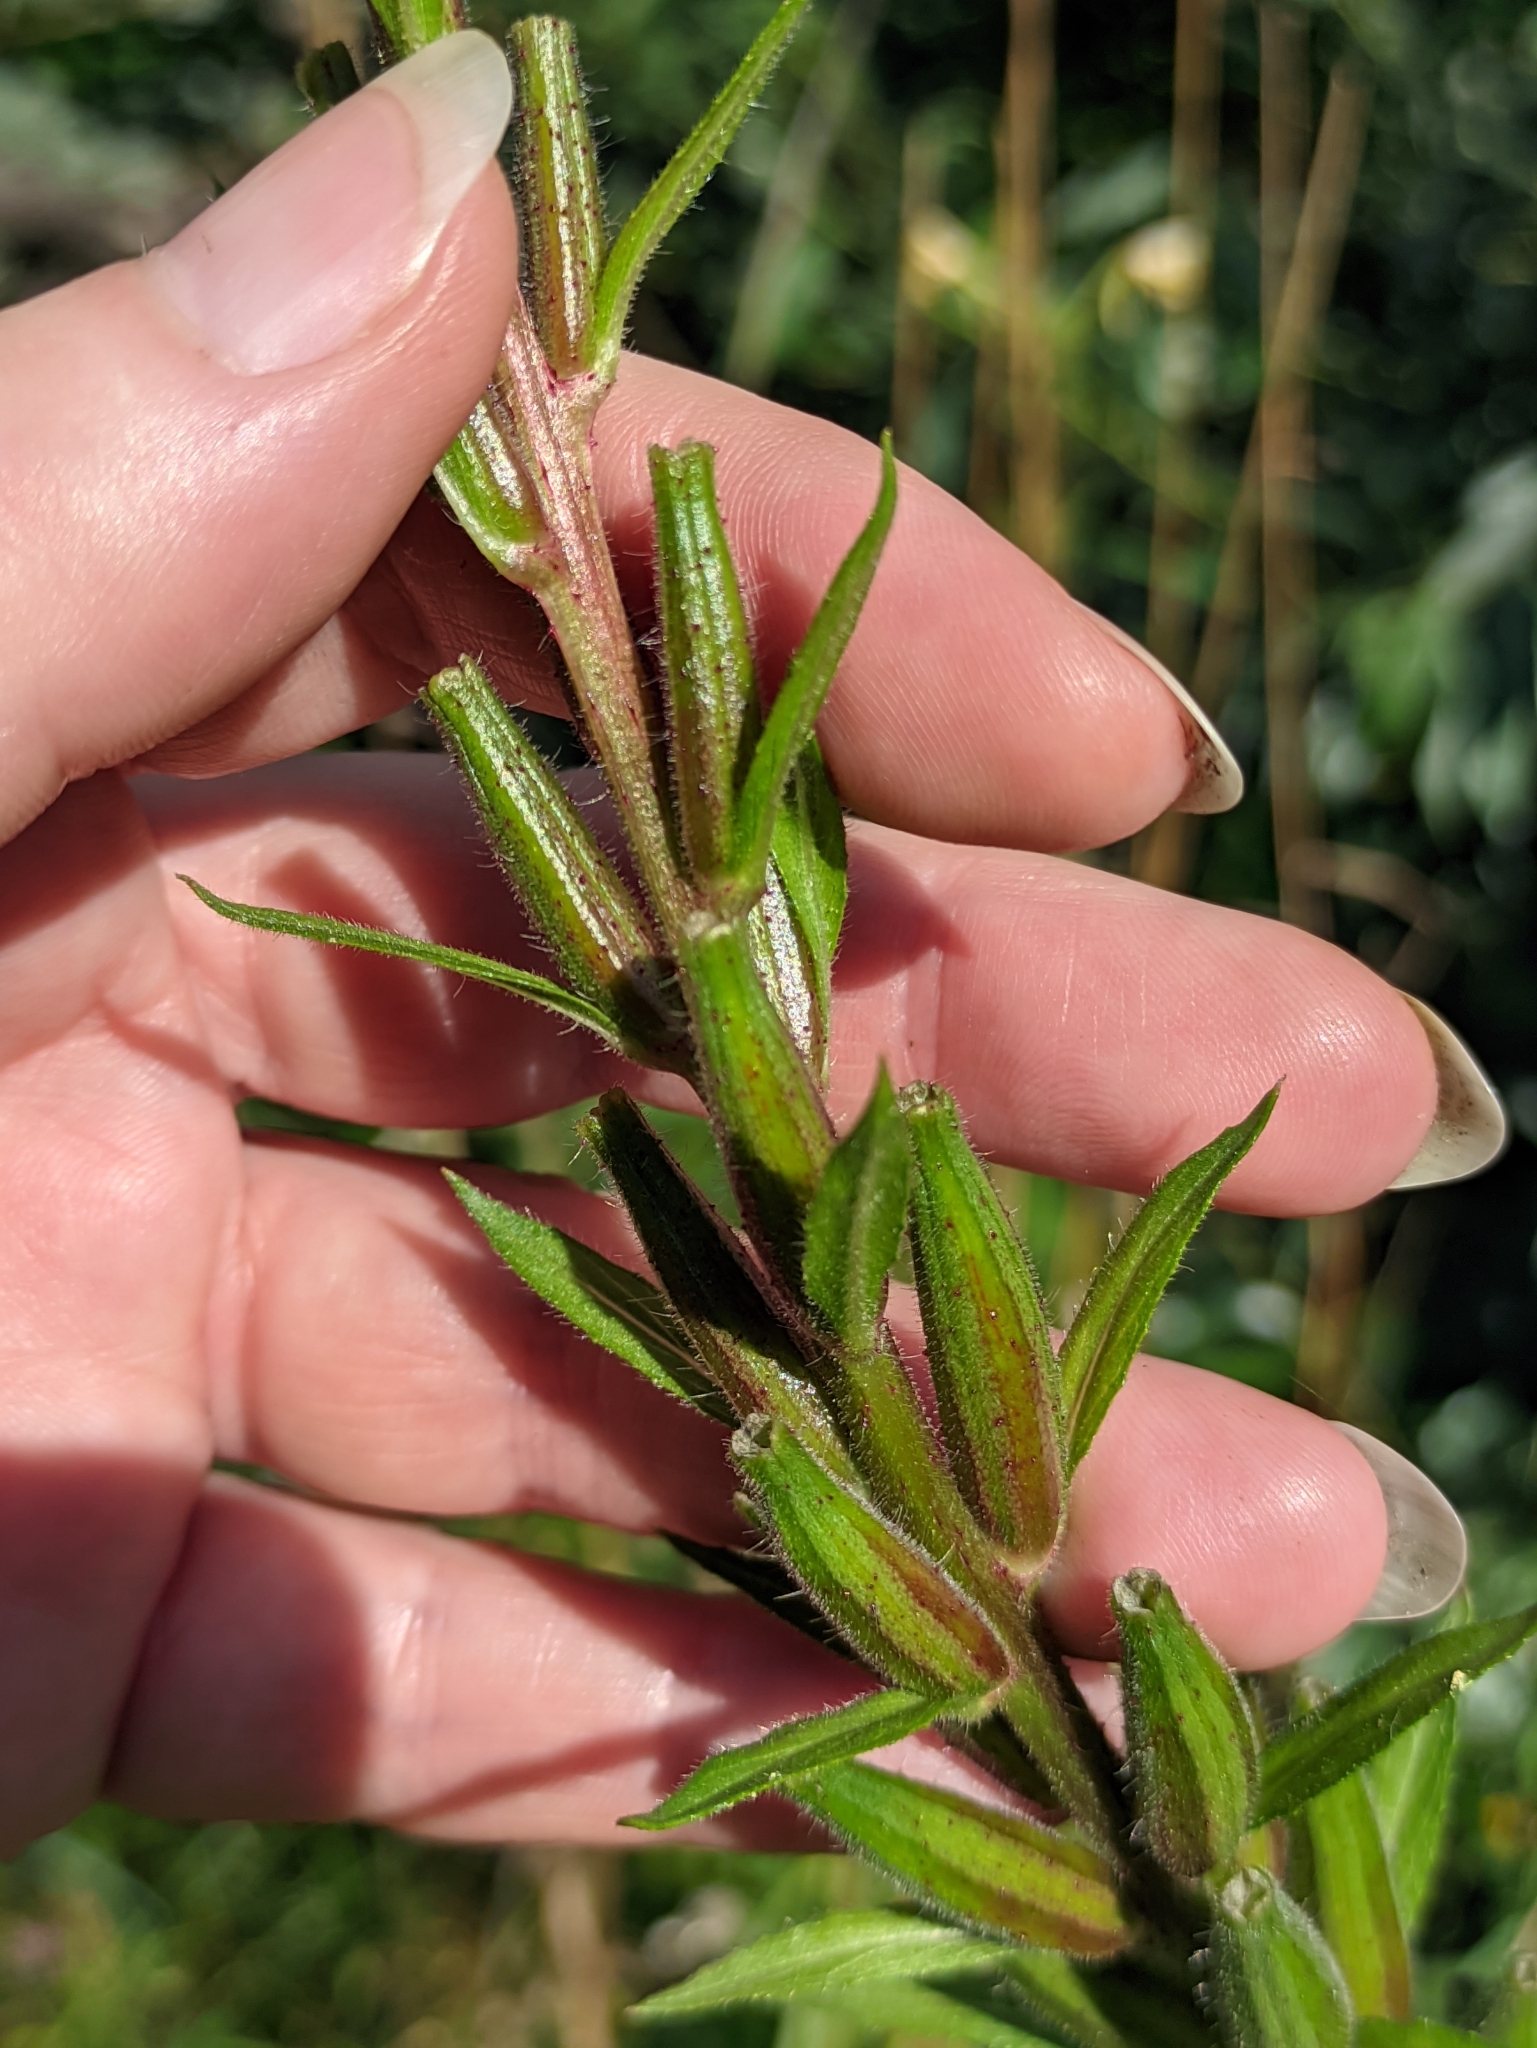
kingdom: Plantae
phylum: Tracheophyta
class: Magnoliopsida
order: Myrtales
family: Onagraceae
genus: Oenothera
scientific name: Oenothera rubricaulis
